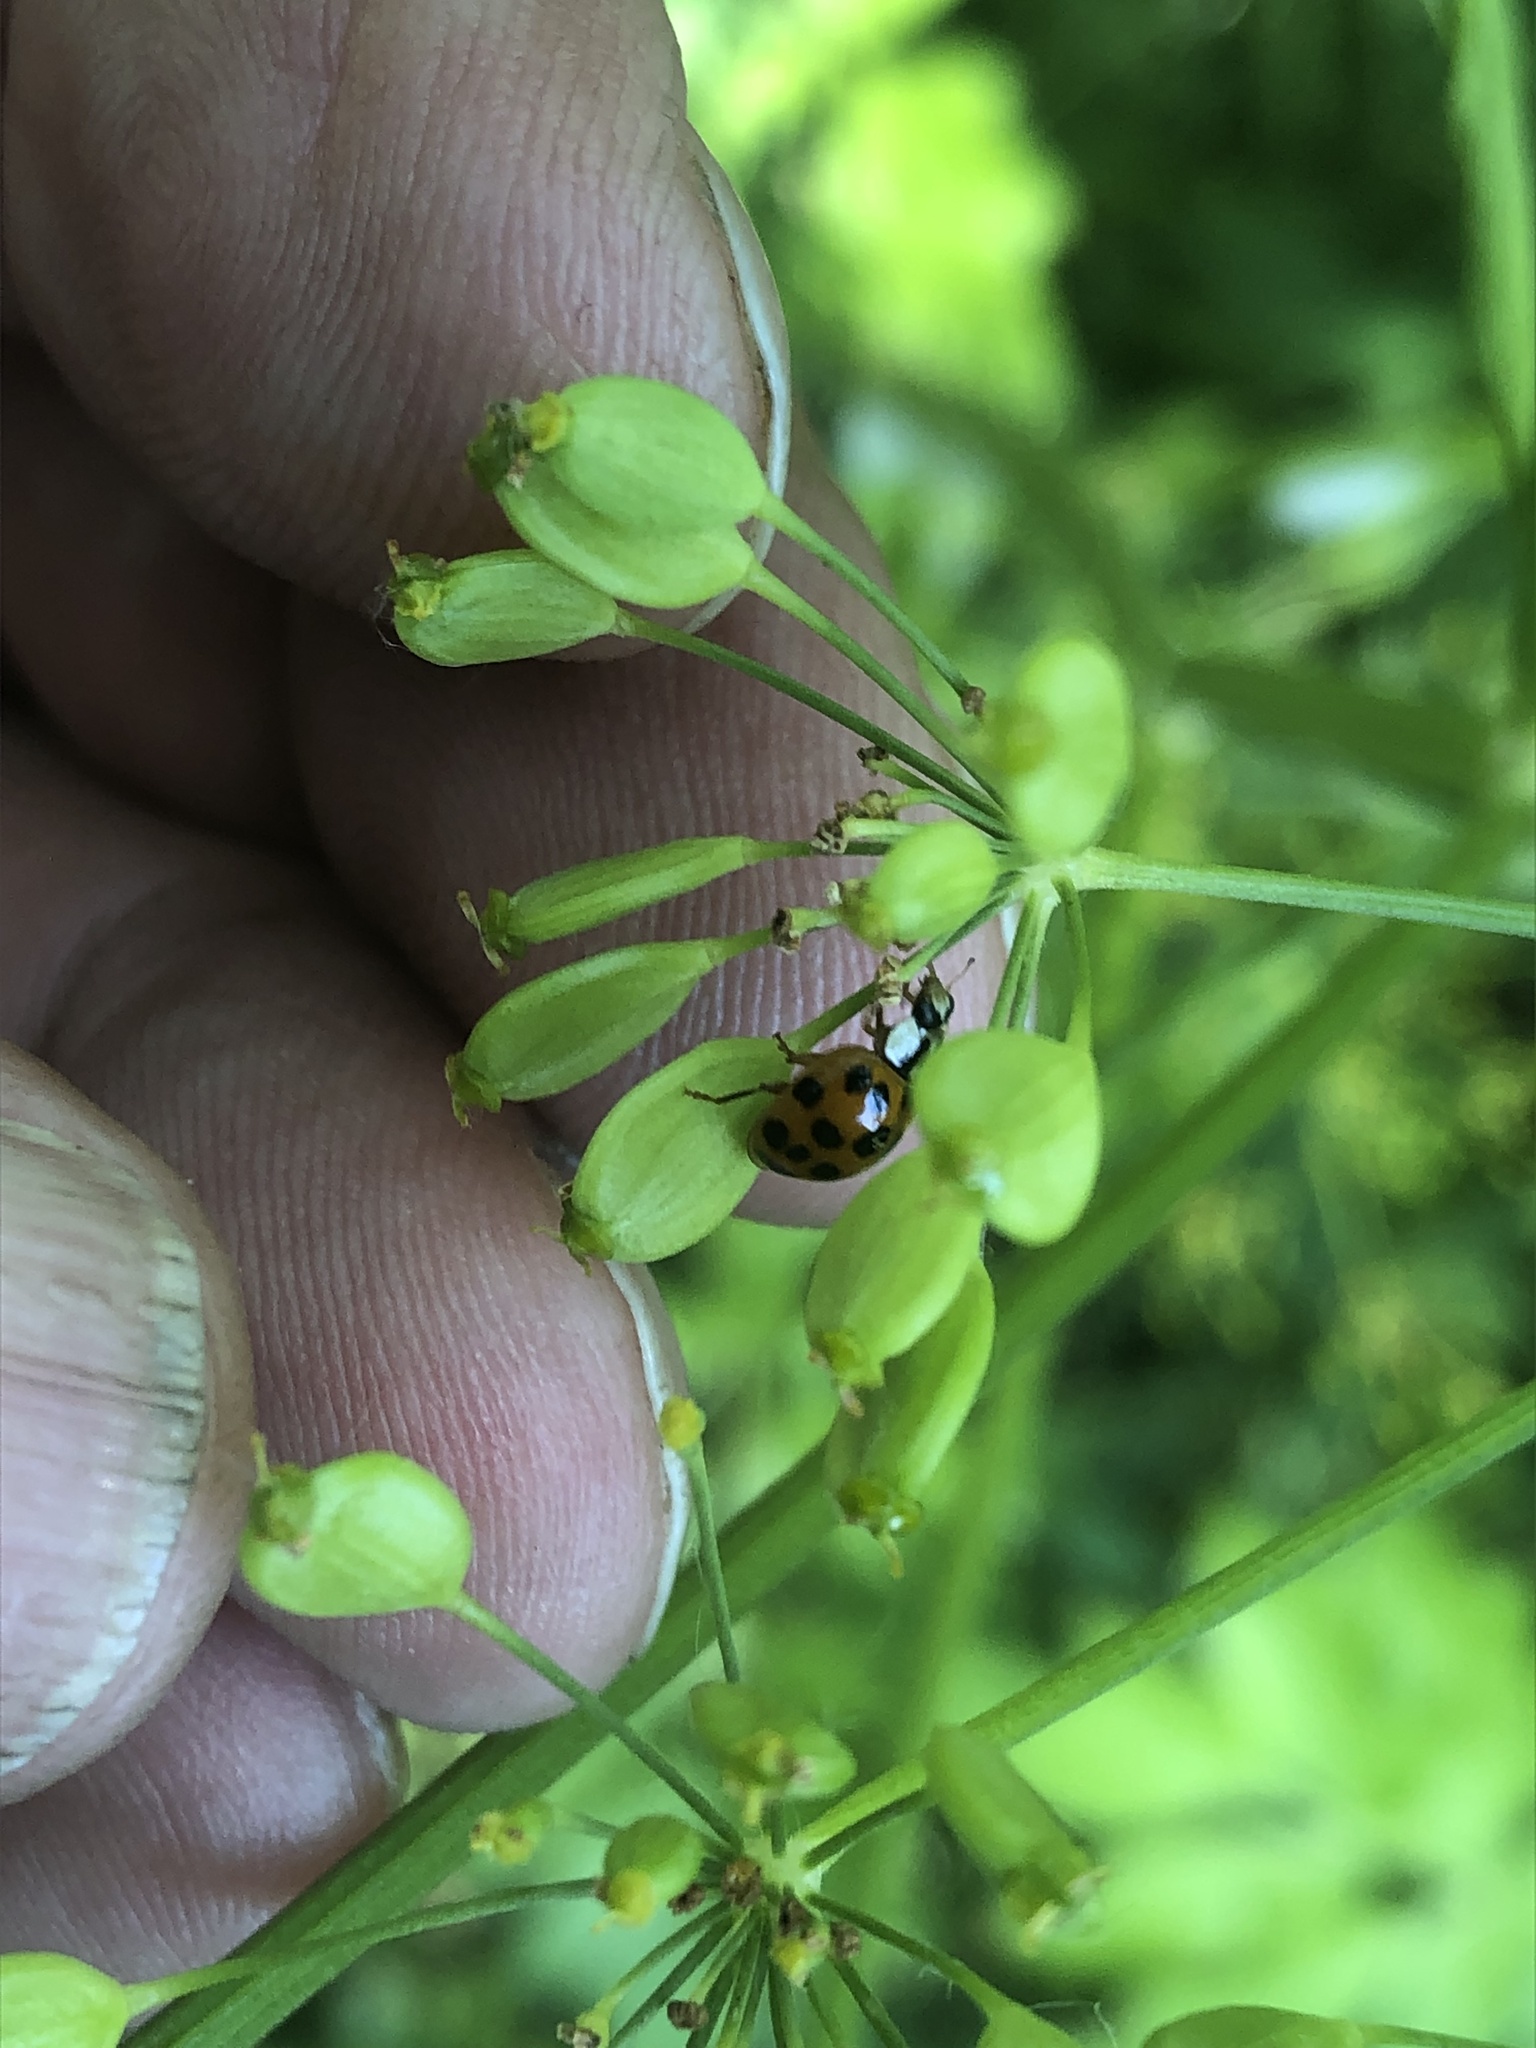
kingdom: Animalia
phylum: Arthropoda
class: Insecta
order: Coleoptera
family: Coccinellidae
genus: Harmonia
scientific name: Harmonia axyridis
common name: Harlequin ladybird
